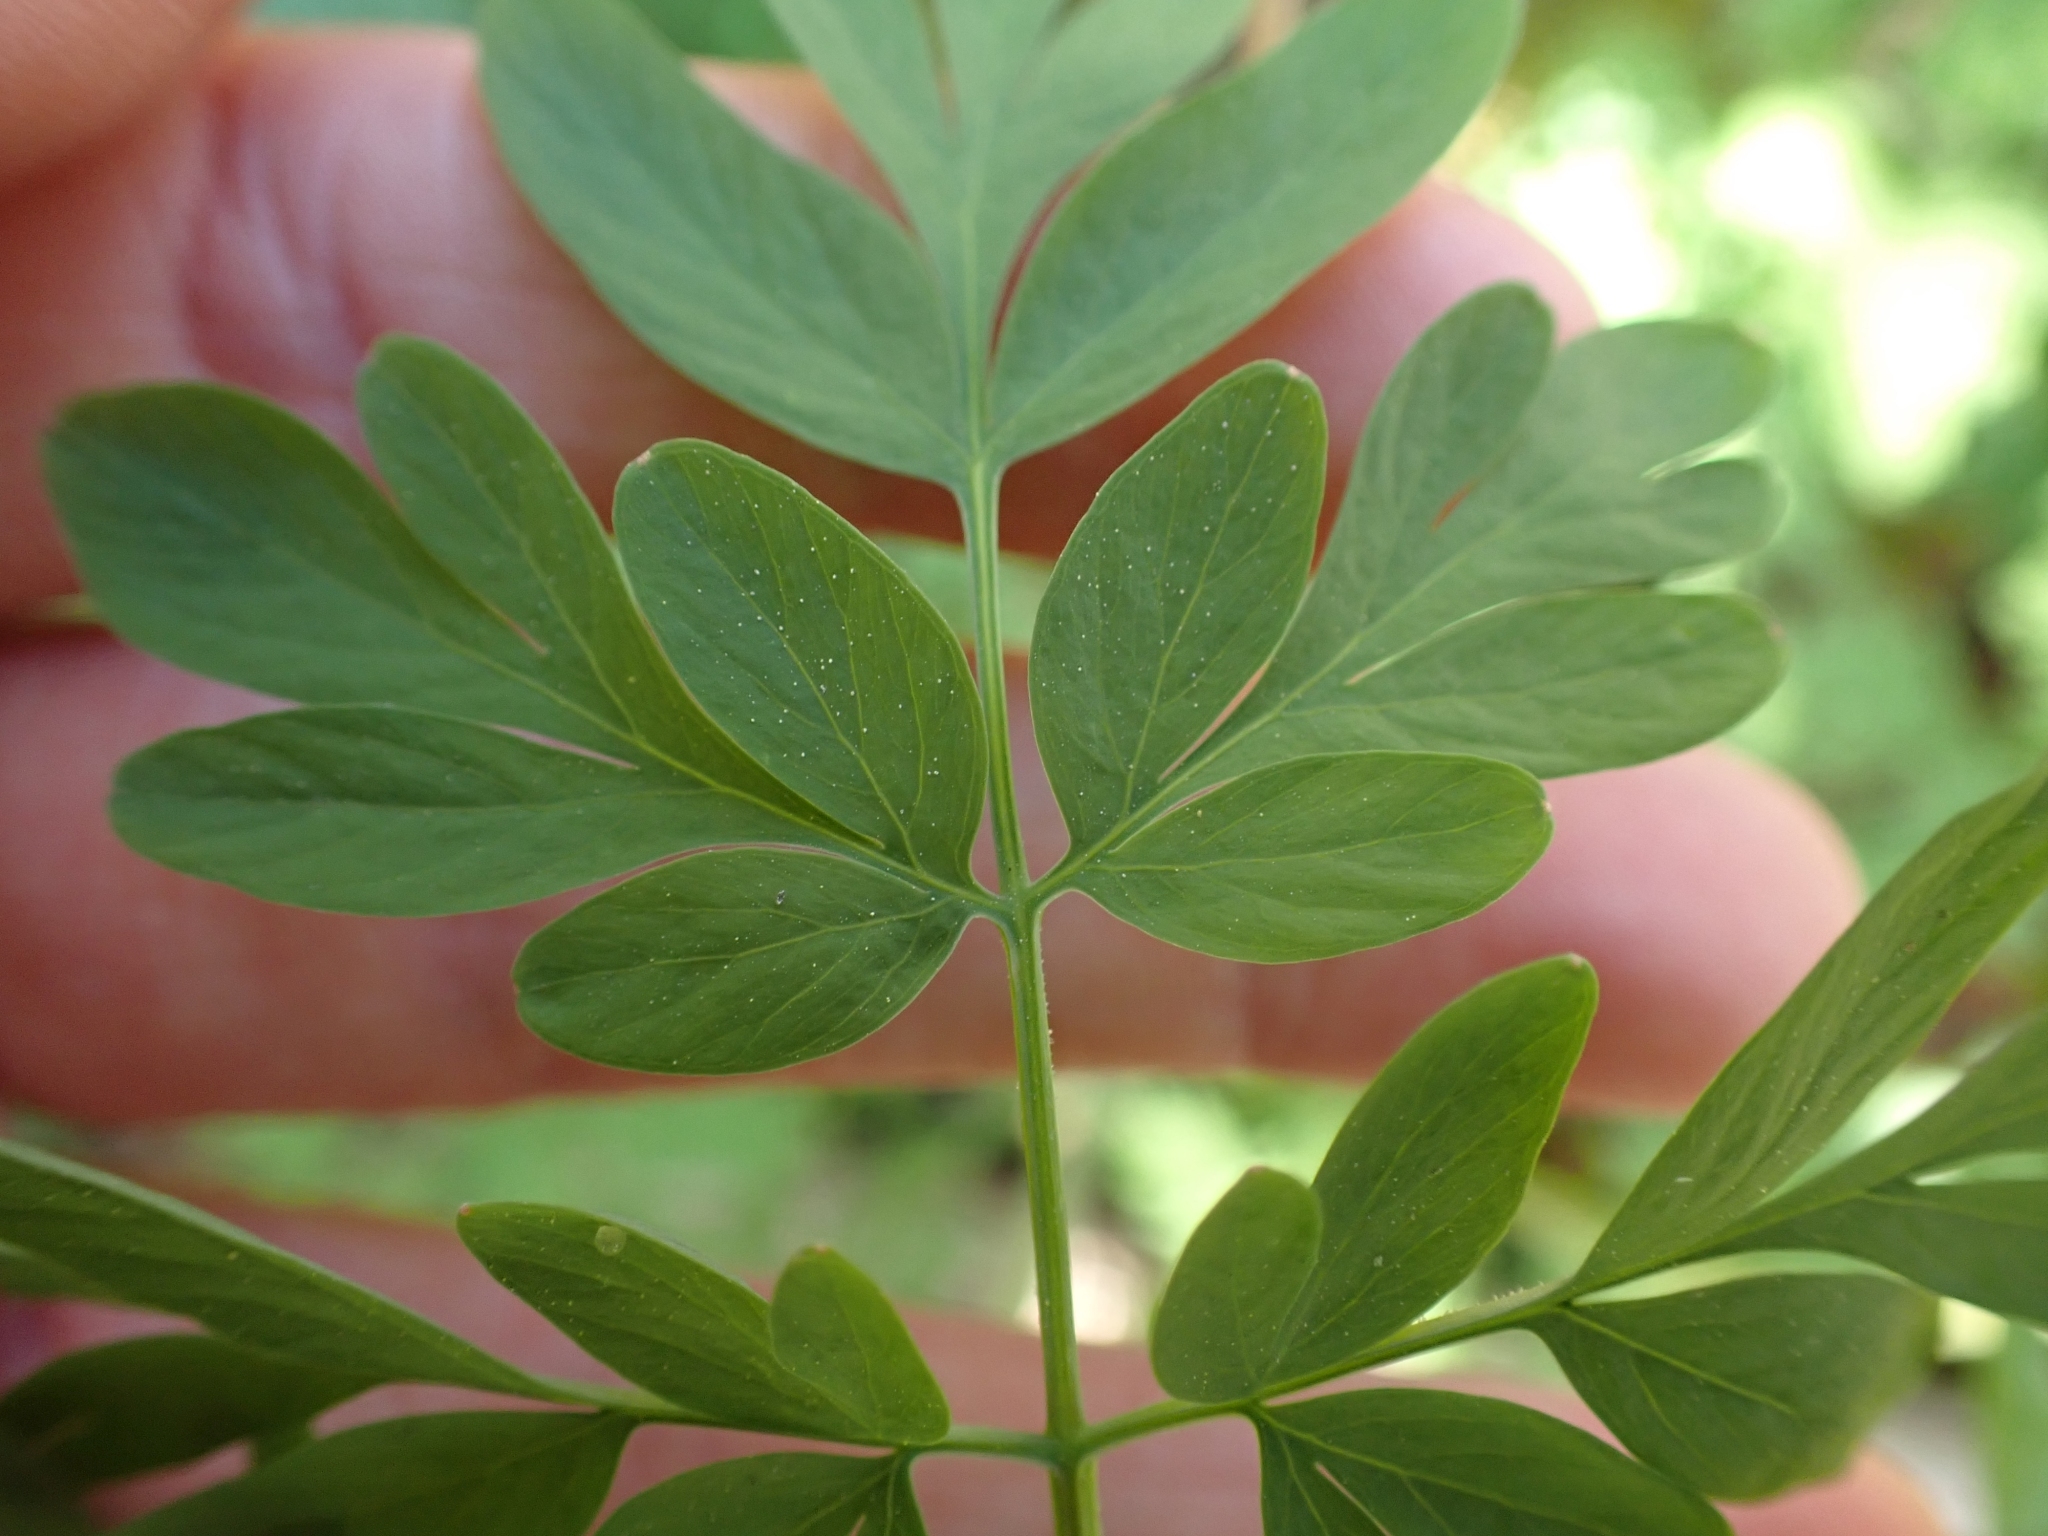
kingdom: Plantae
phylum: Tracheophyta
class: Magnoliopsida
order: Ranunculales
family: Papaveraceae
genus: Corydalis
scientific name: Corydalis scouleri
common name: Scouler's corydalis
